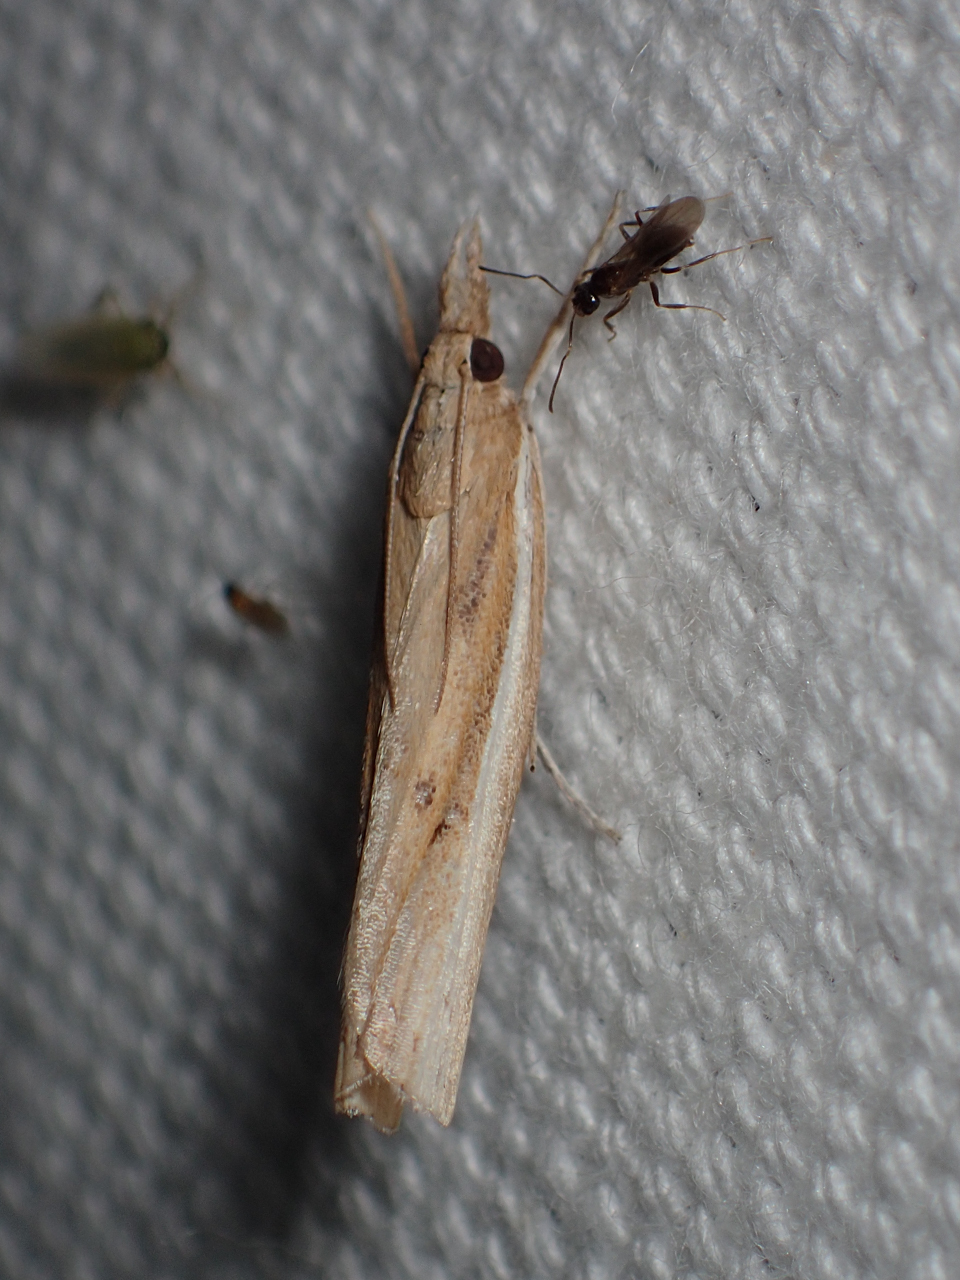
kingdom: Animalia
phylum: Arthropoda
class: Insecta
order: Lepidoptera
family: Crambidae
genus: Fissicrambus
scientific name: Fissicrambus fissiradiellus
